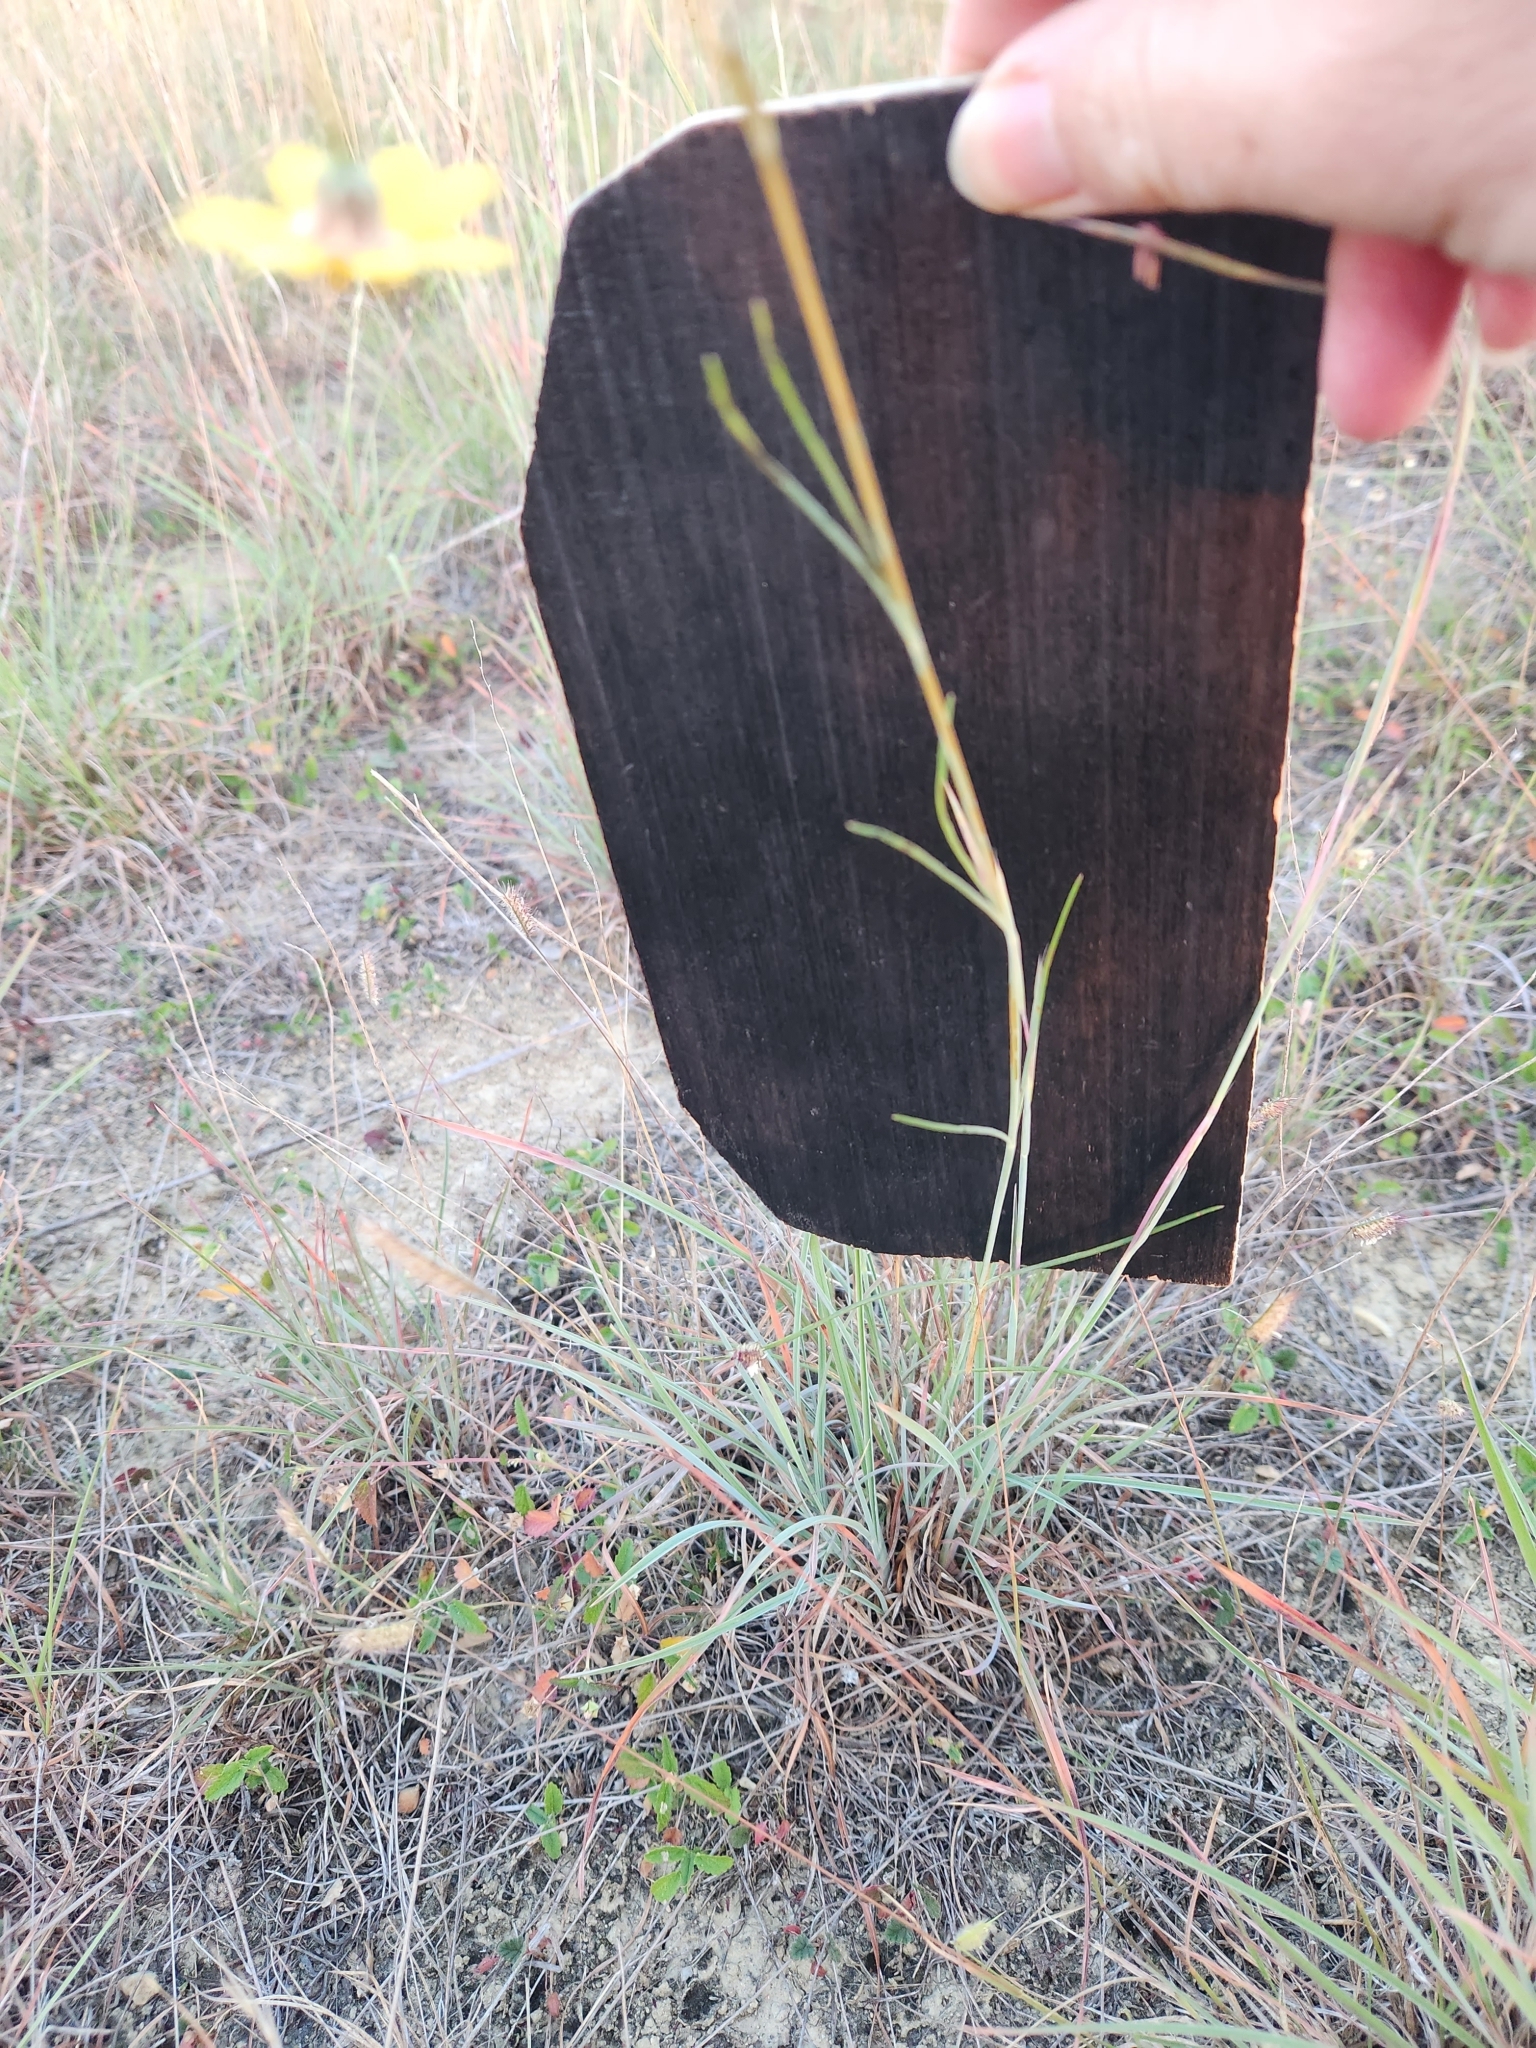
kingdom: Plantae
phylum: Tracheophyta
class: Magnoliopsida
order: Asterales
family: Asteraceae
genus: Thelesperma
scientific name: Thelesperma simplicifolium
